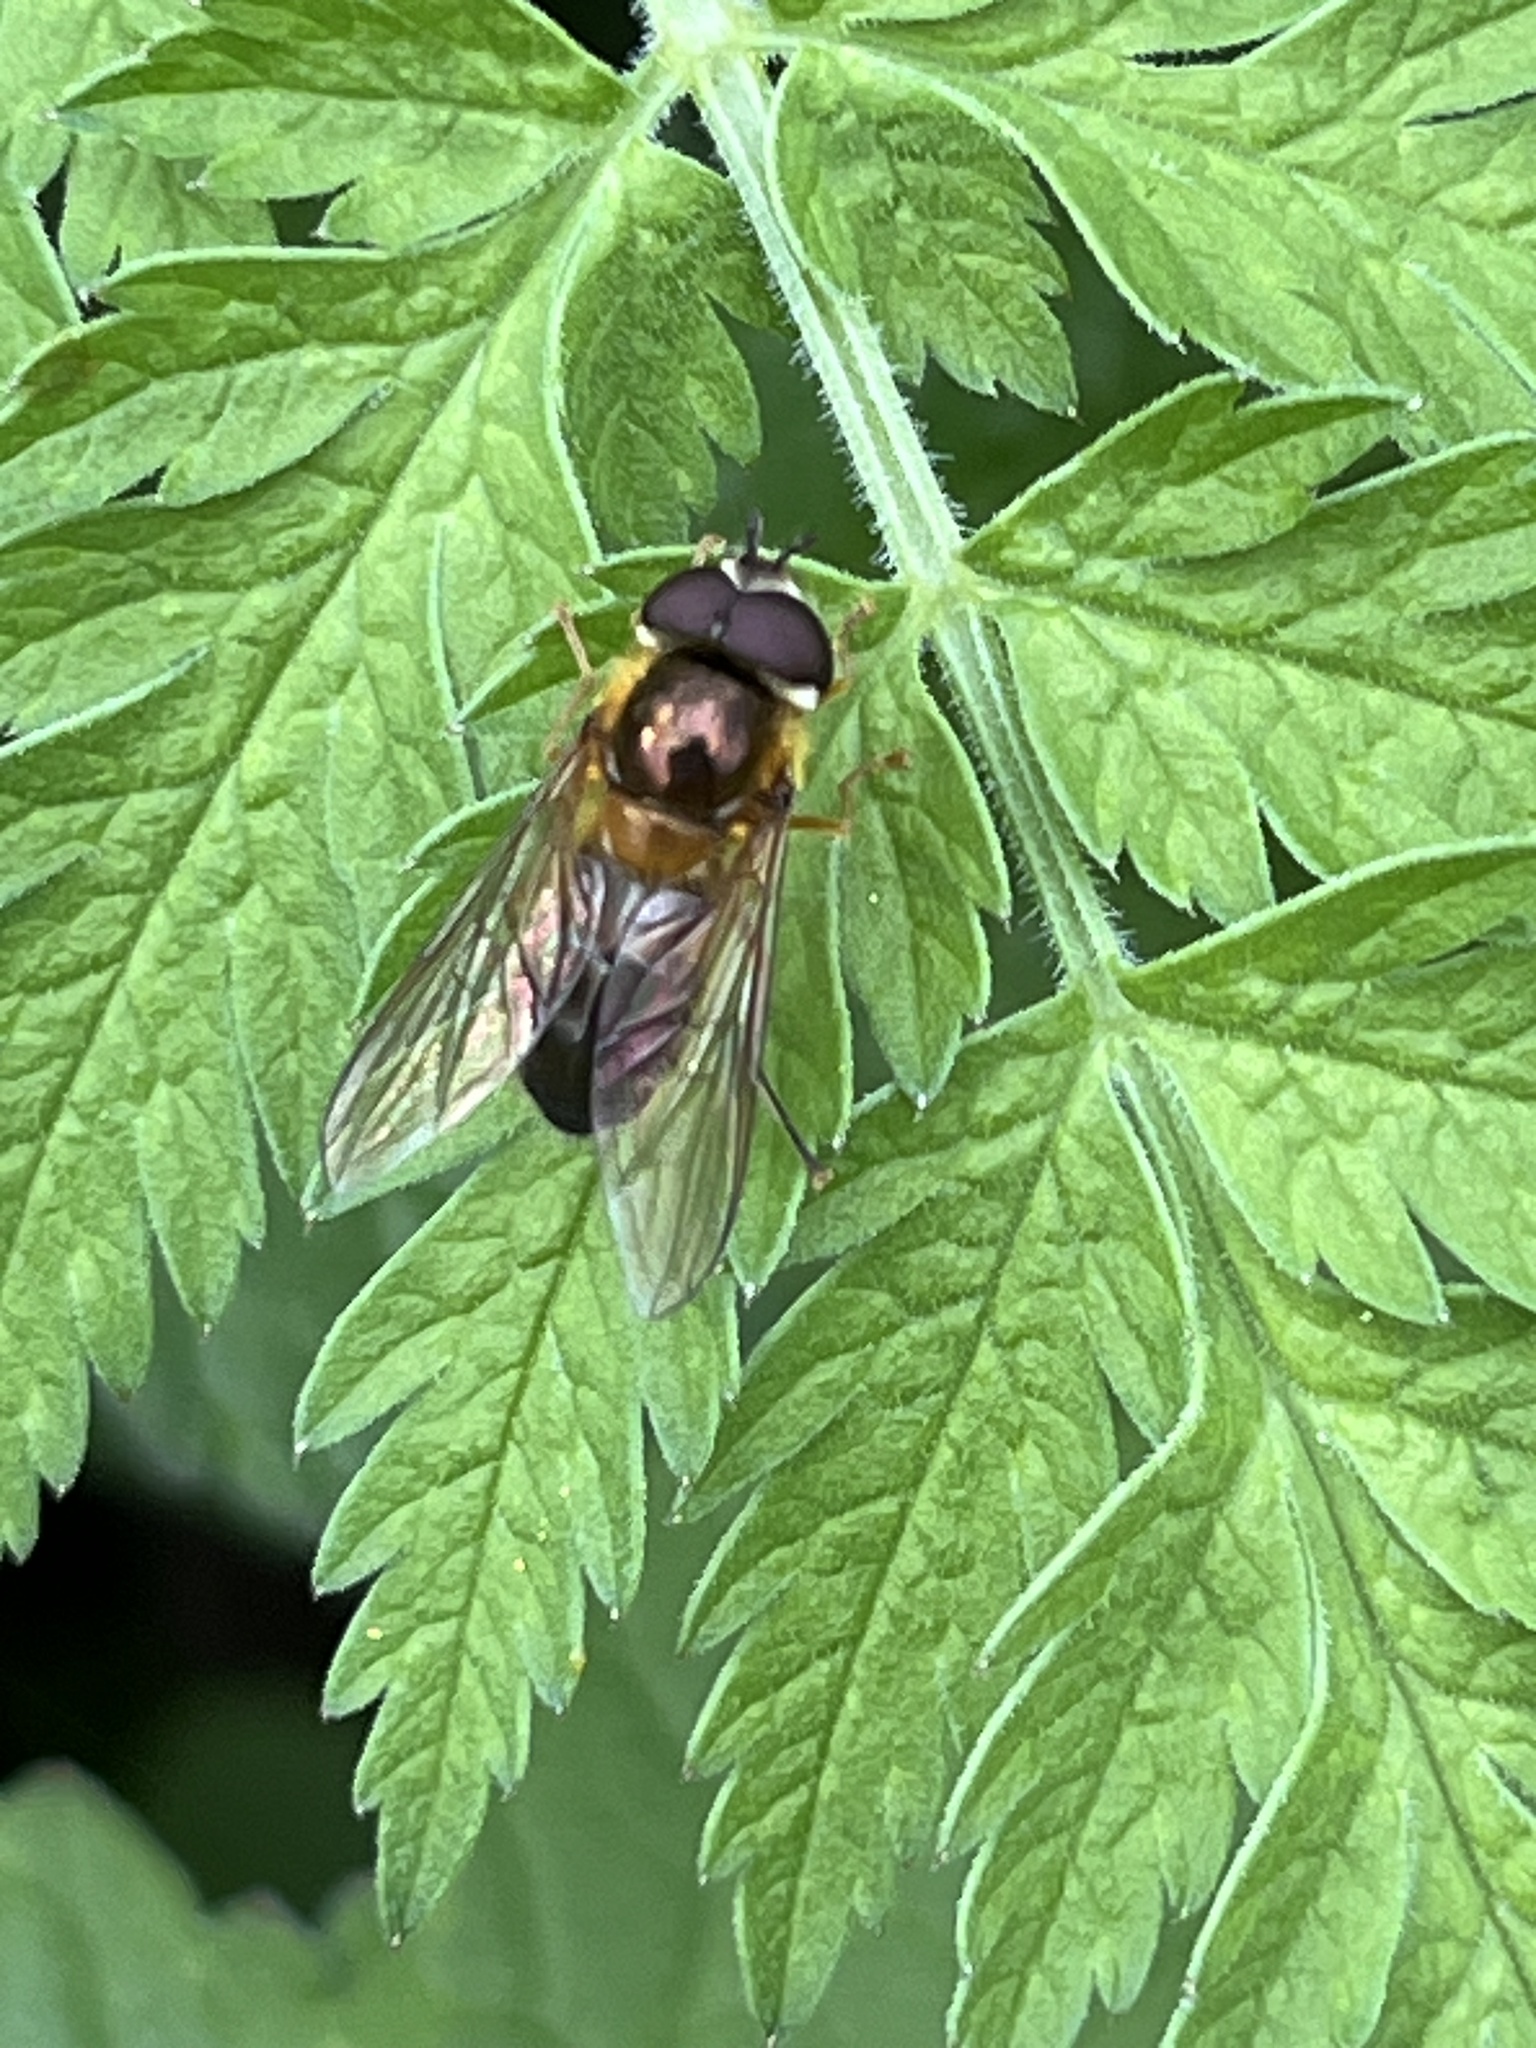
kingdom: Animalia
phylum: Arthropoda
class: Insecta
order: Diptera
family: Syrphidae
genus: Epistrophe
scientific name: Epistrophe eligans
